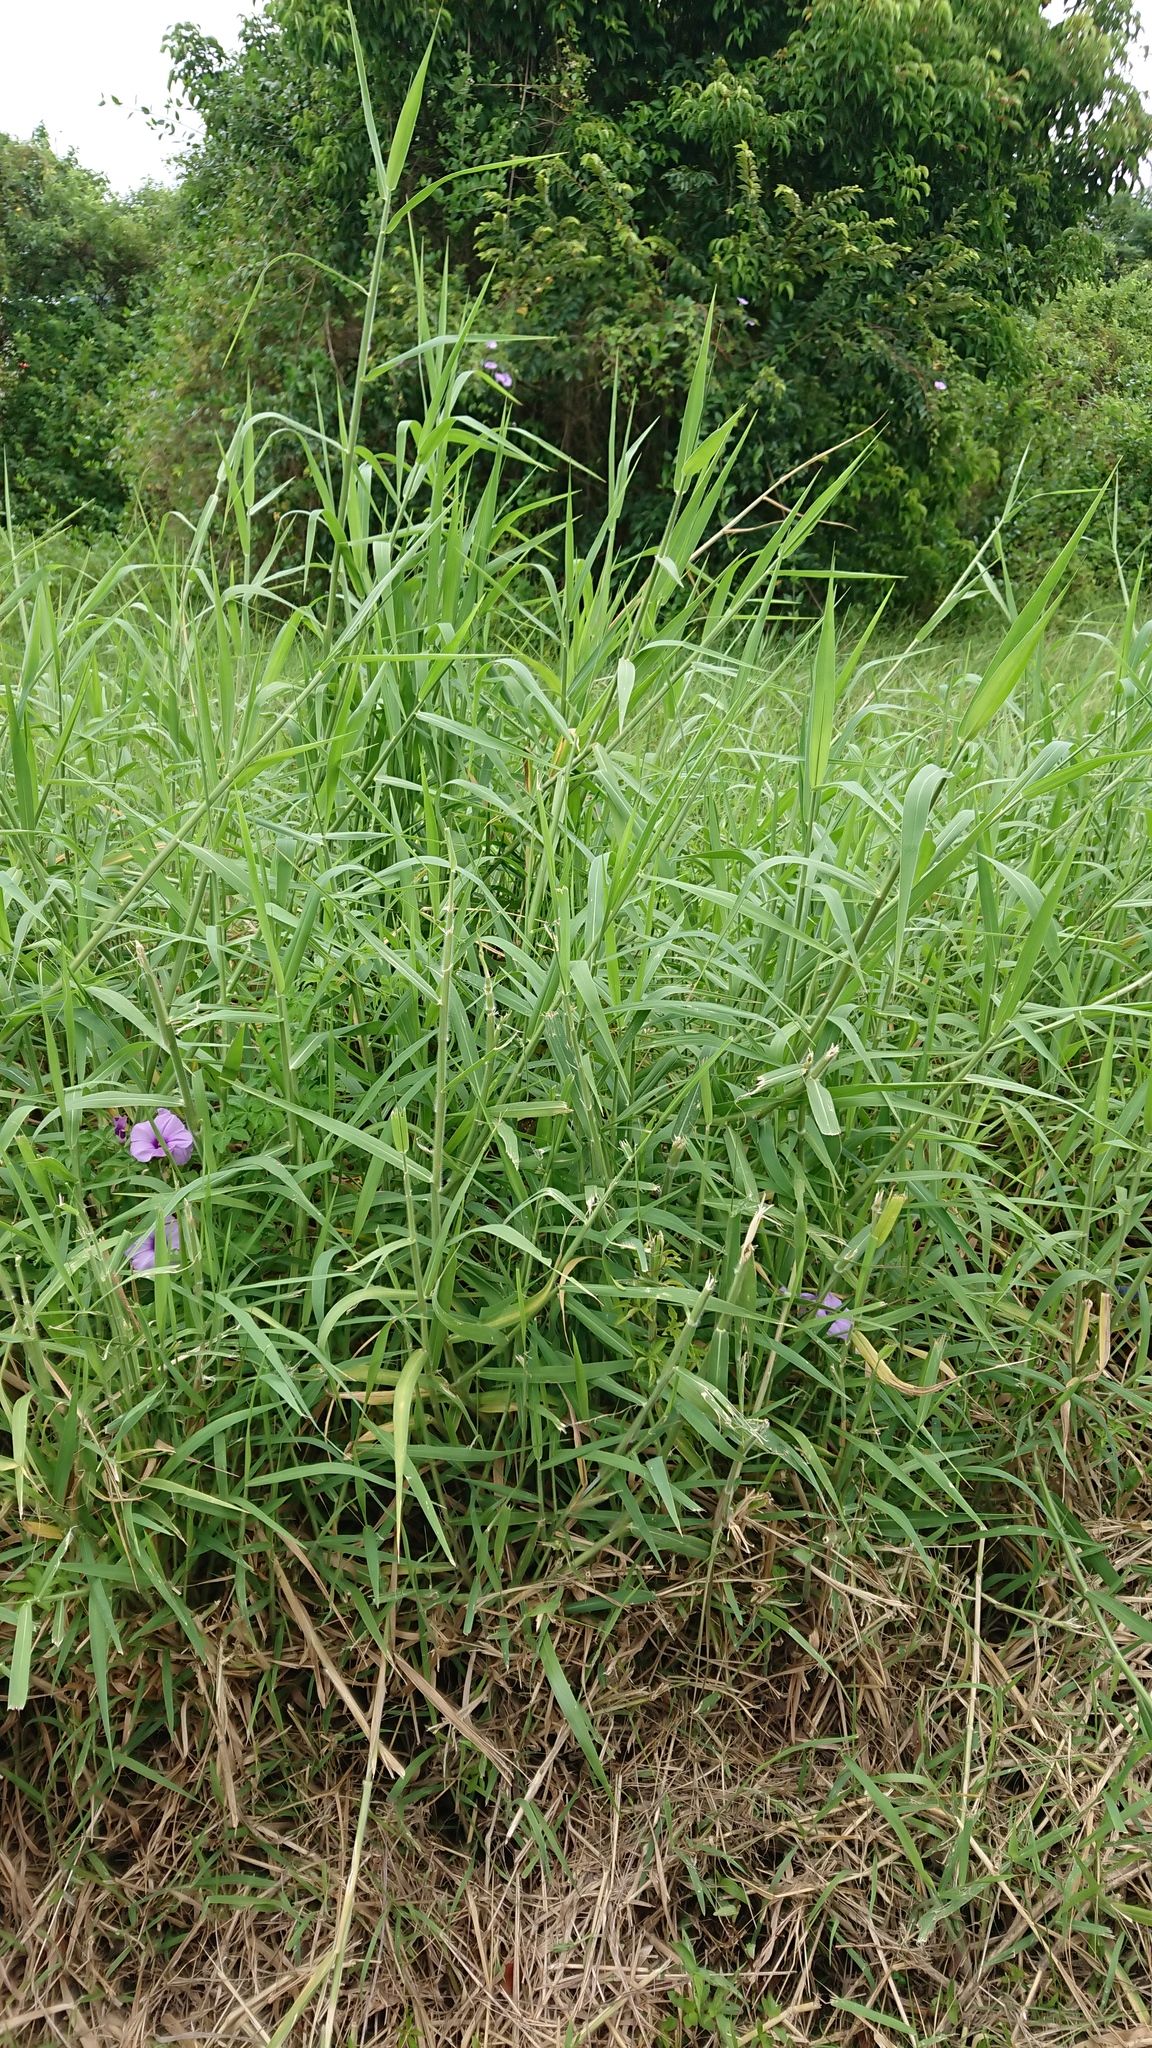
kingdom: Plantae
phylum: Tracheophyta
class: Liliopsida
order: Poales
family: Poaceae
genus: Urochloa
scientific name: Urochloa mutica
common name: Para grass
